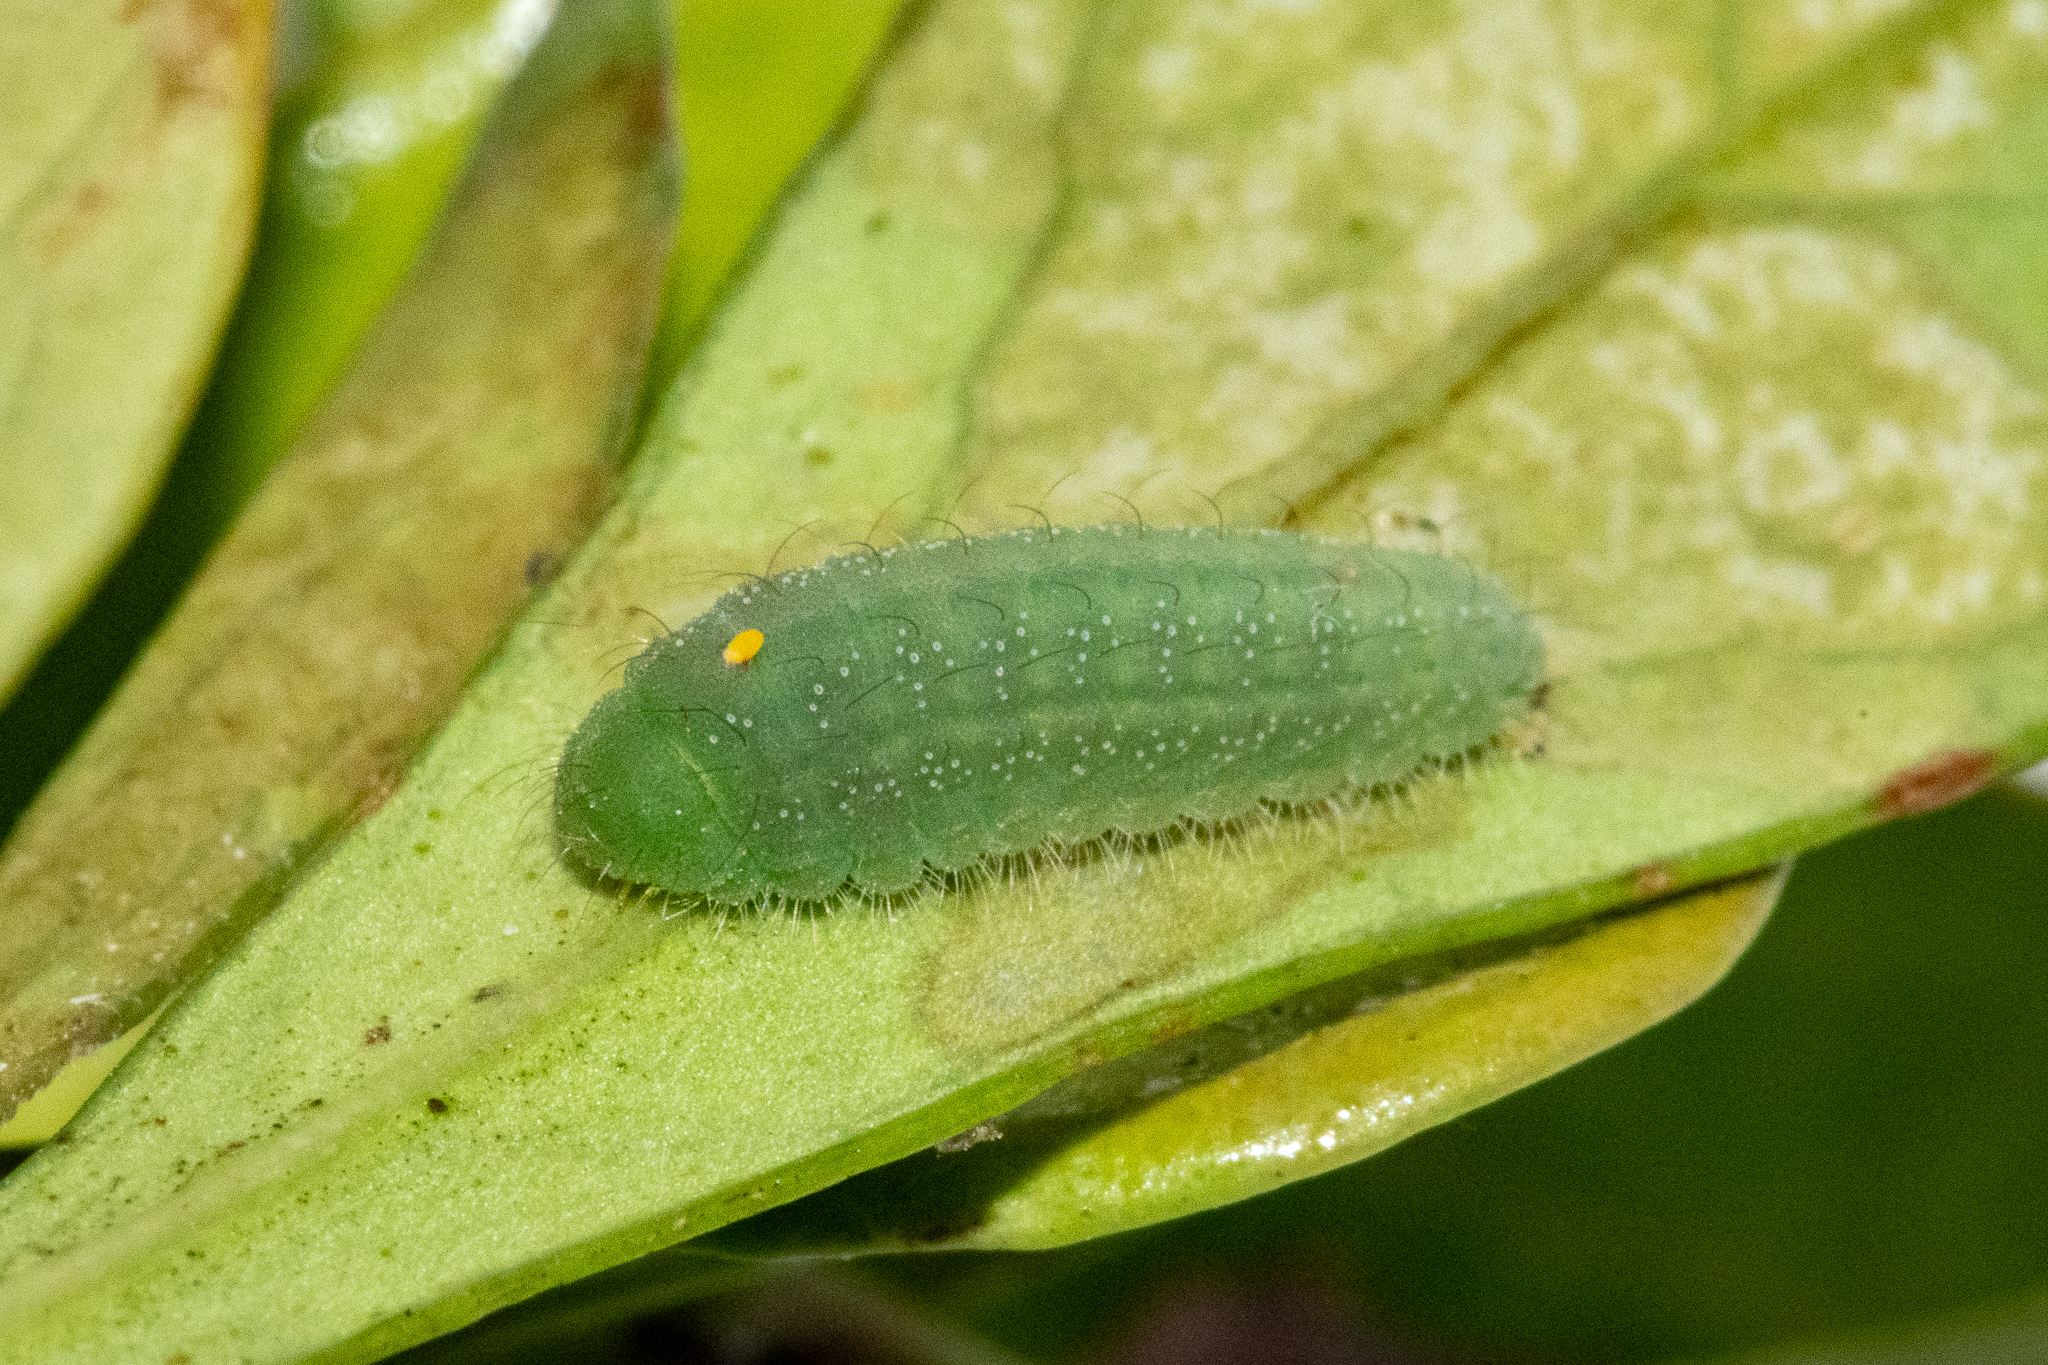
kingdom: Animalia
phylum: Arthropoda
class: Insecta
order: Lepidoptera
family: Zygaenidae
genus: Neurosymploca
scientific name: Neurosymploca naumanniola
